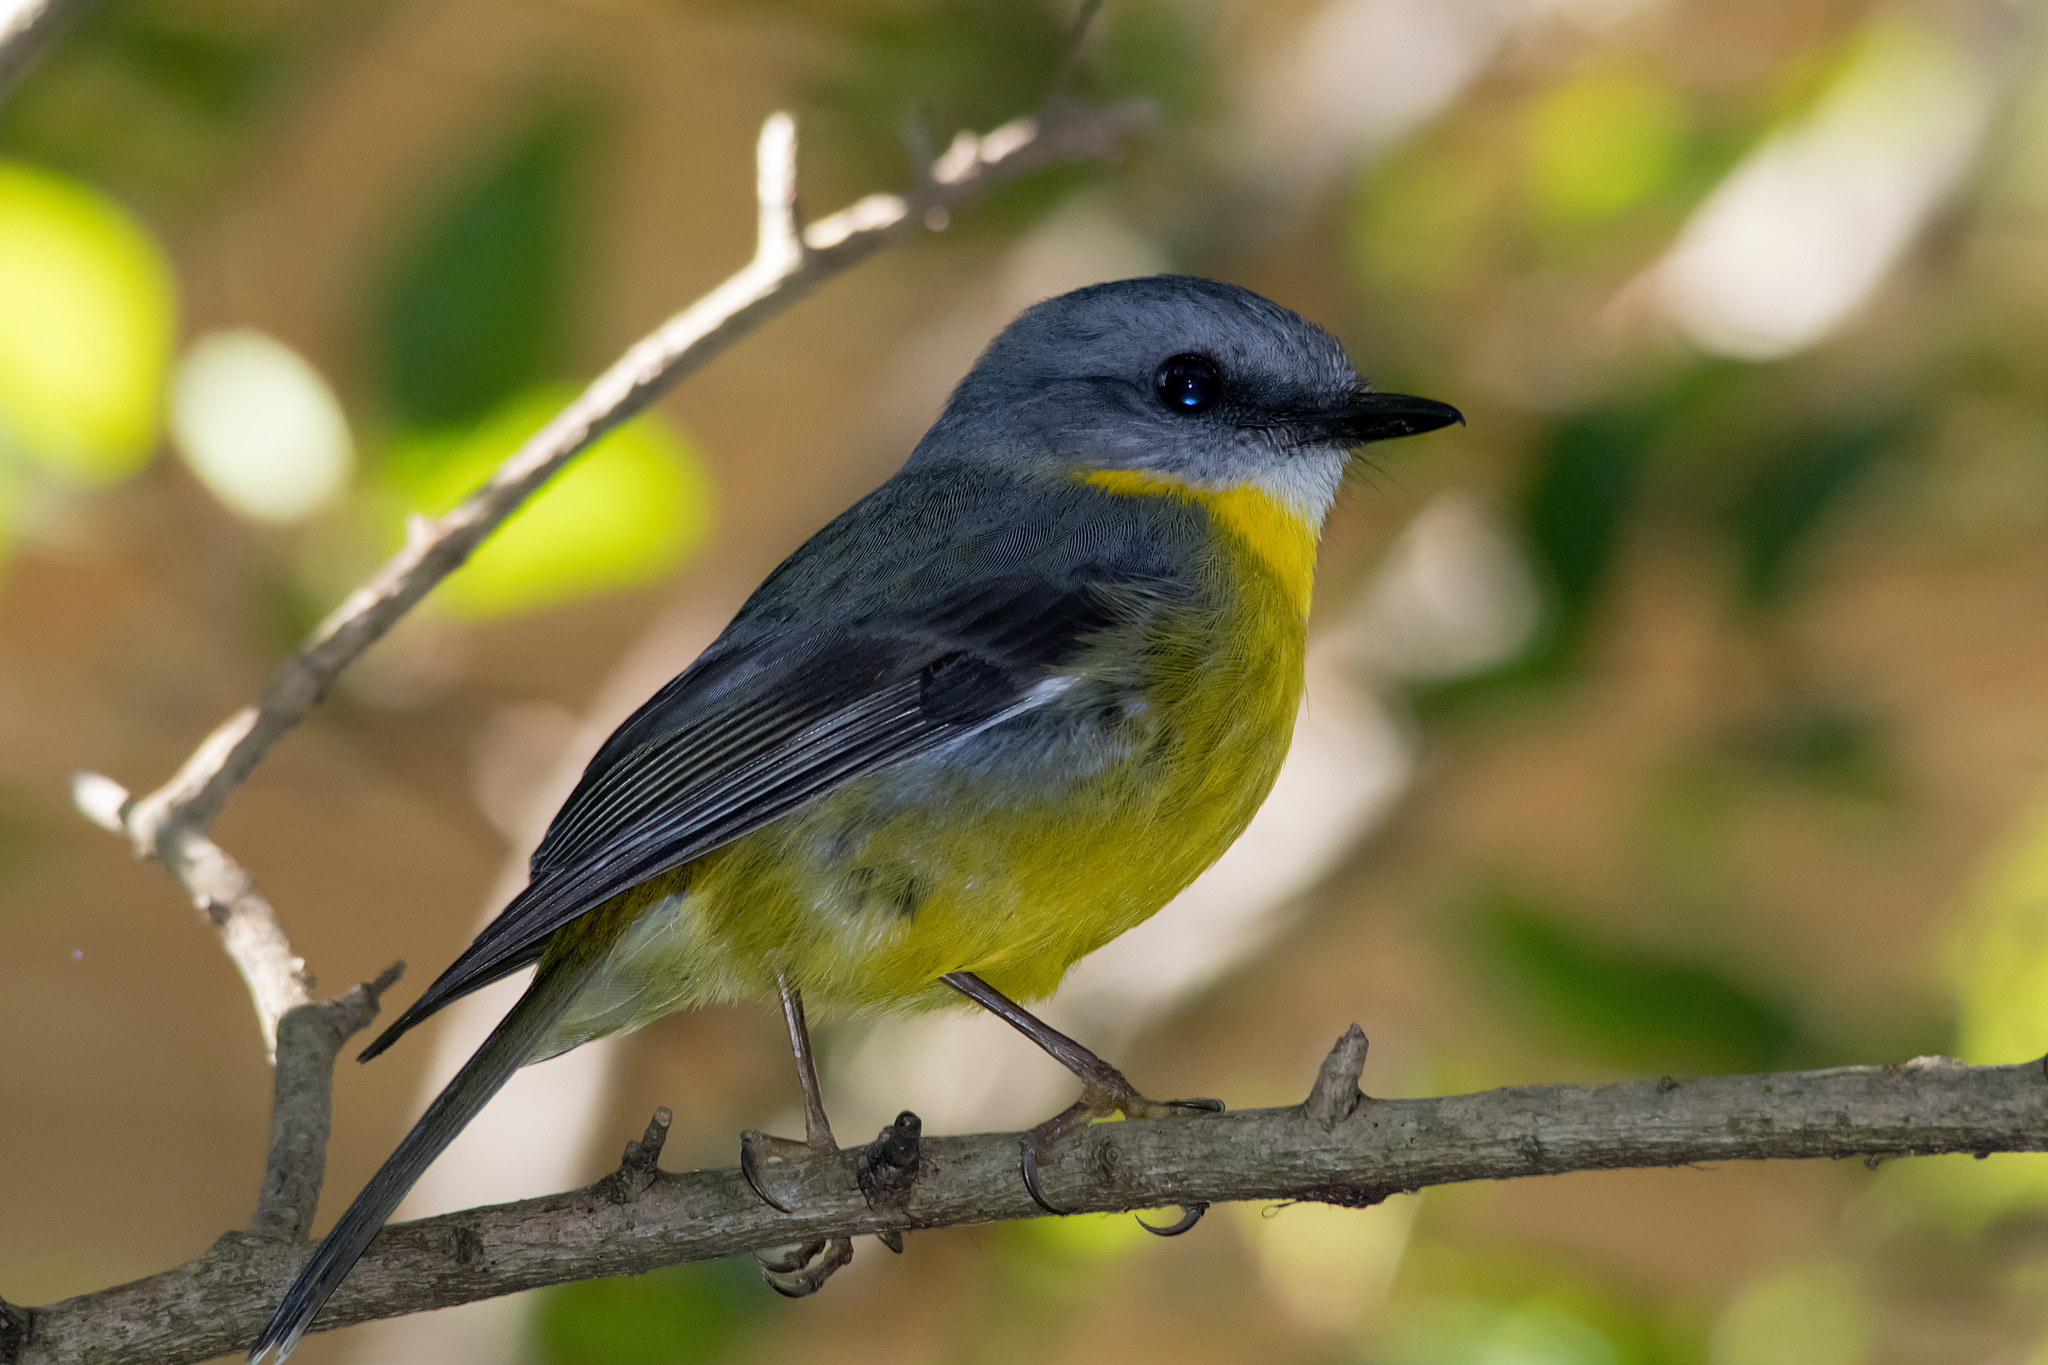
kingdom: Animalia
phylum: Chordata
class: Aves
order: Passeriformes
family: Petroicidae
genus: Eopsaltria
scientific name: Eopsaltria australis
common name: Eastern yellow robin
